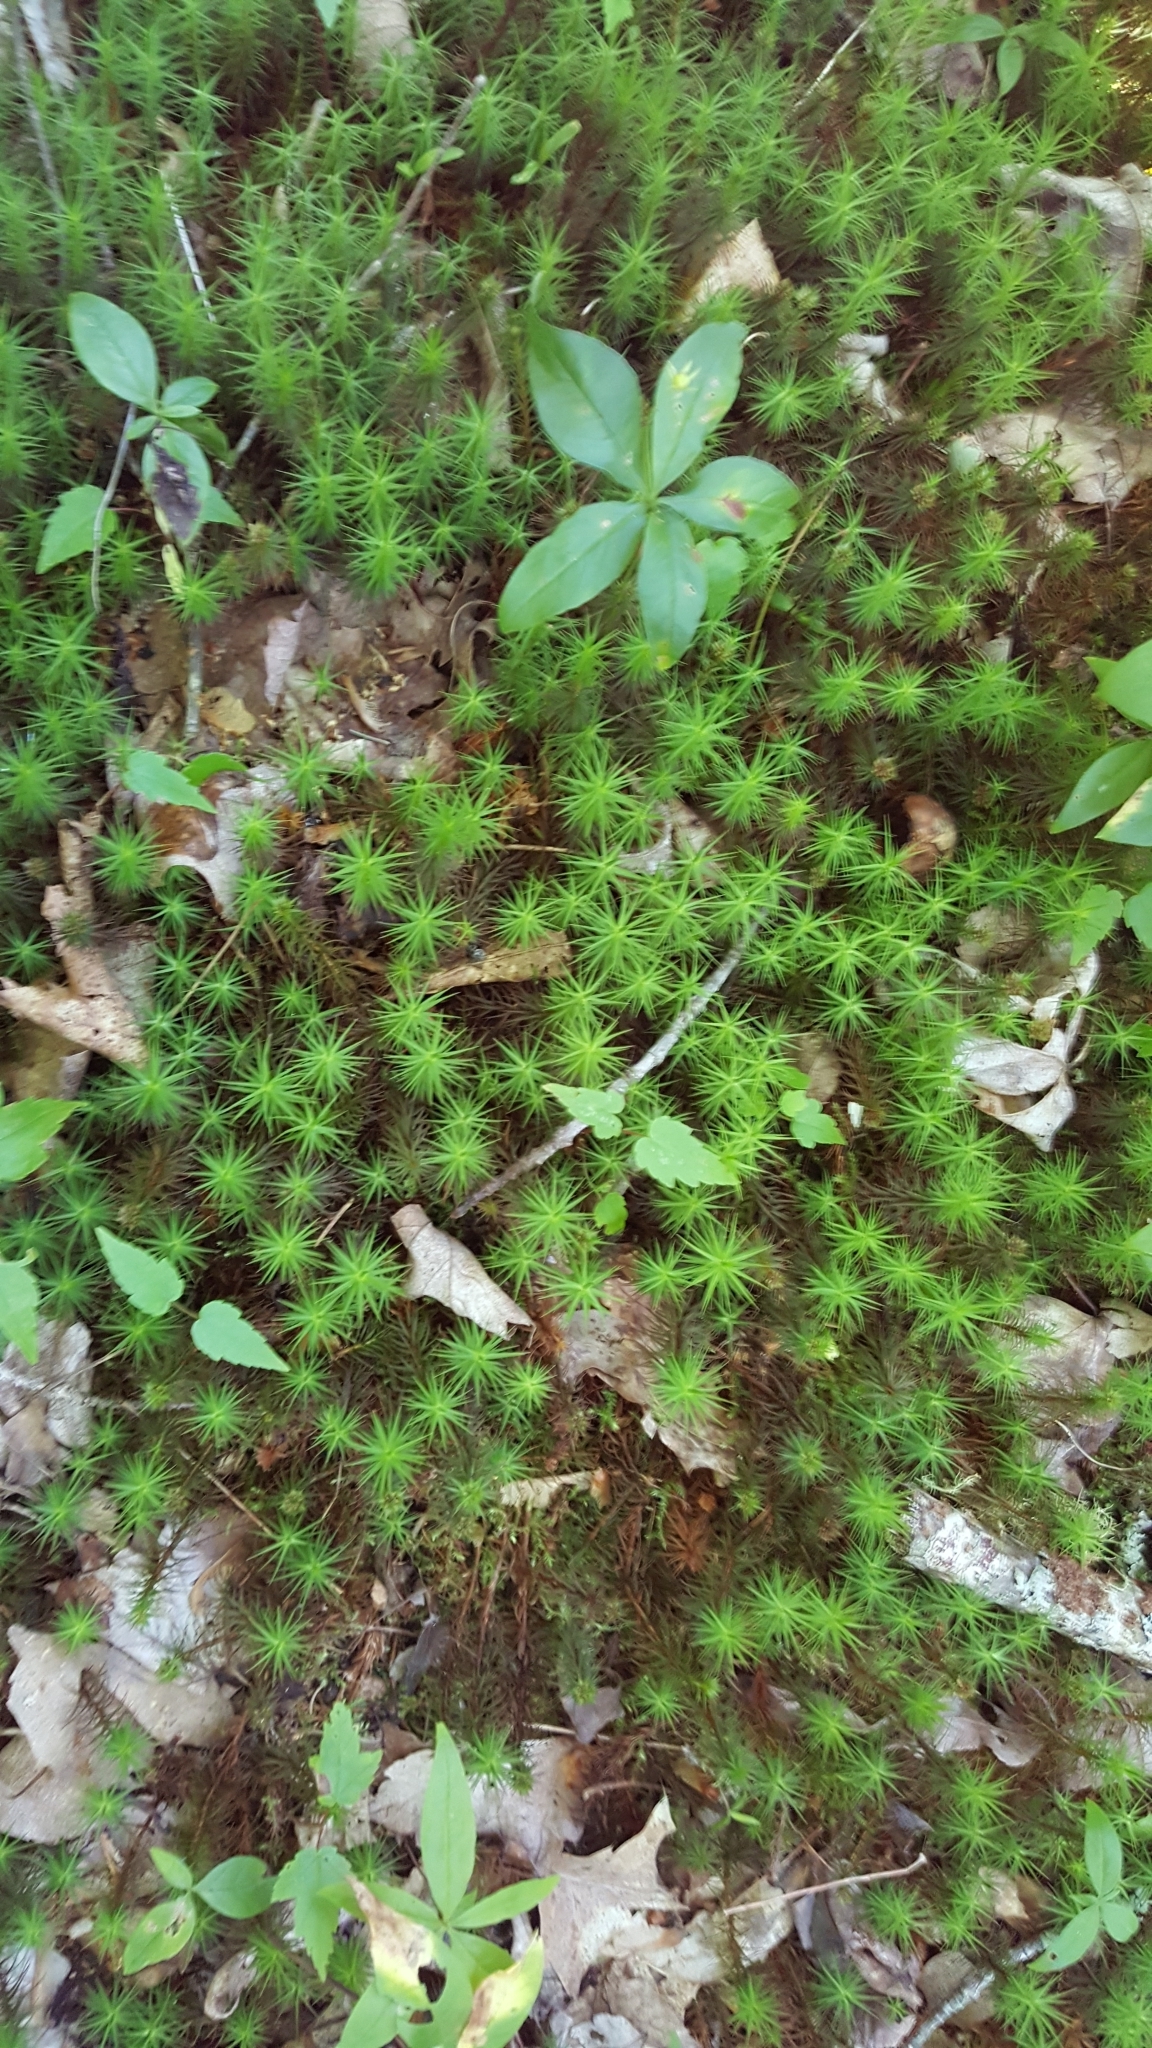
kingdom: Plantae
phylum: Bryophyta
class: Polytrichopsida
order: Polytrichales
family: Polytrichaceae
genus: Polytrichum
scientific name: Polytrichum
